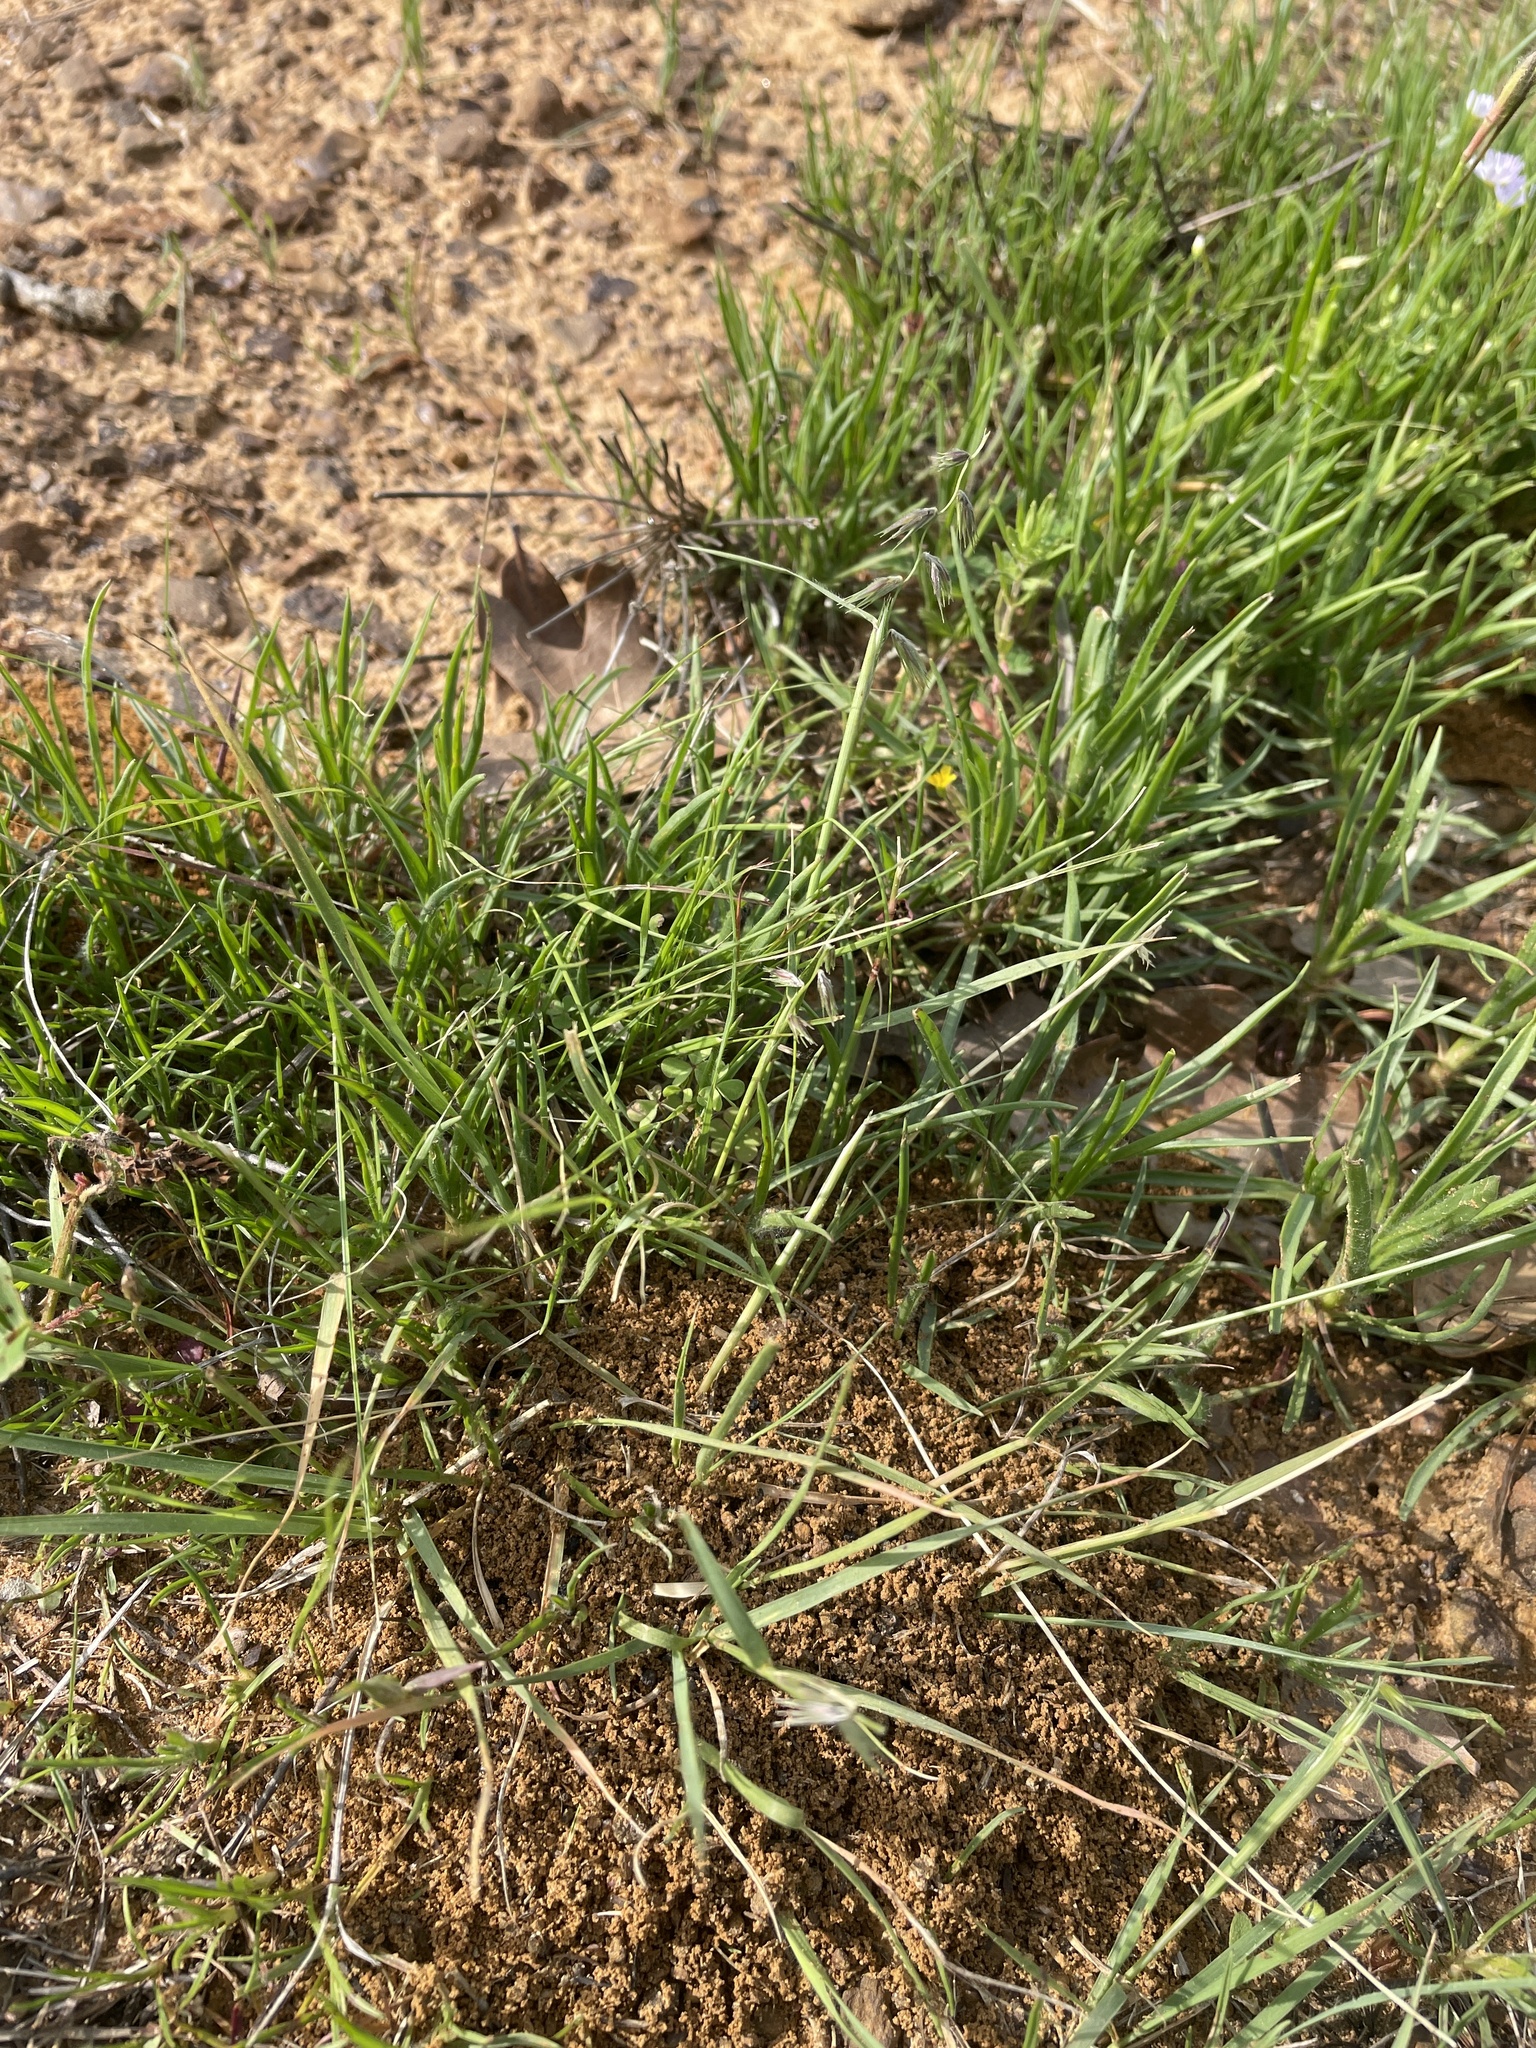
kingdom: Plantae
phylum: Tracheophyta
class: Liliopsida
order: Poales
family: Poaceae
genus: Bouteloua
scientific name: Bouteloua rigidiseta
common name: Texas grama
